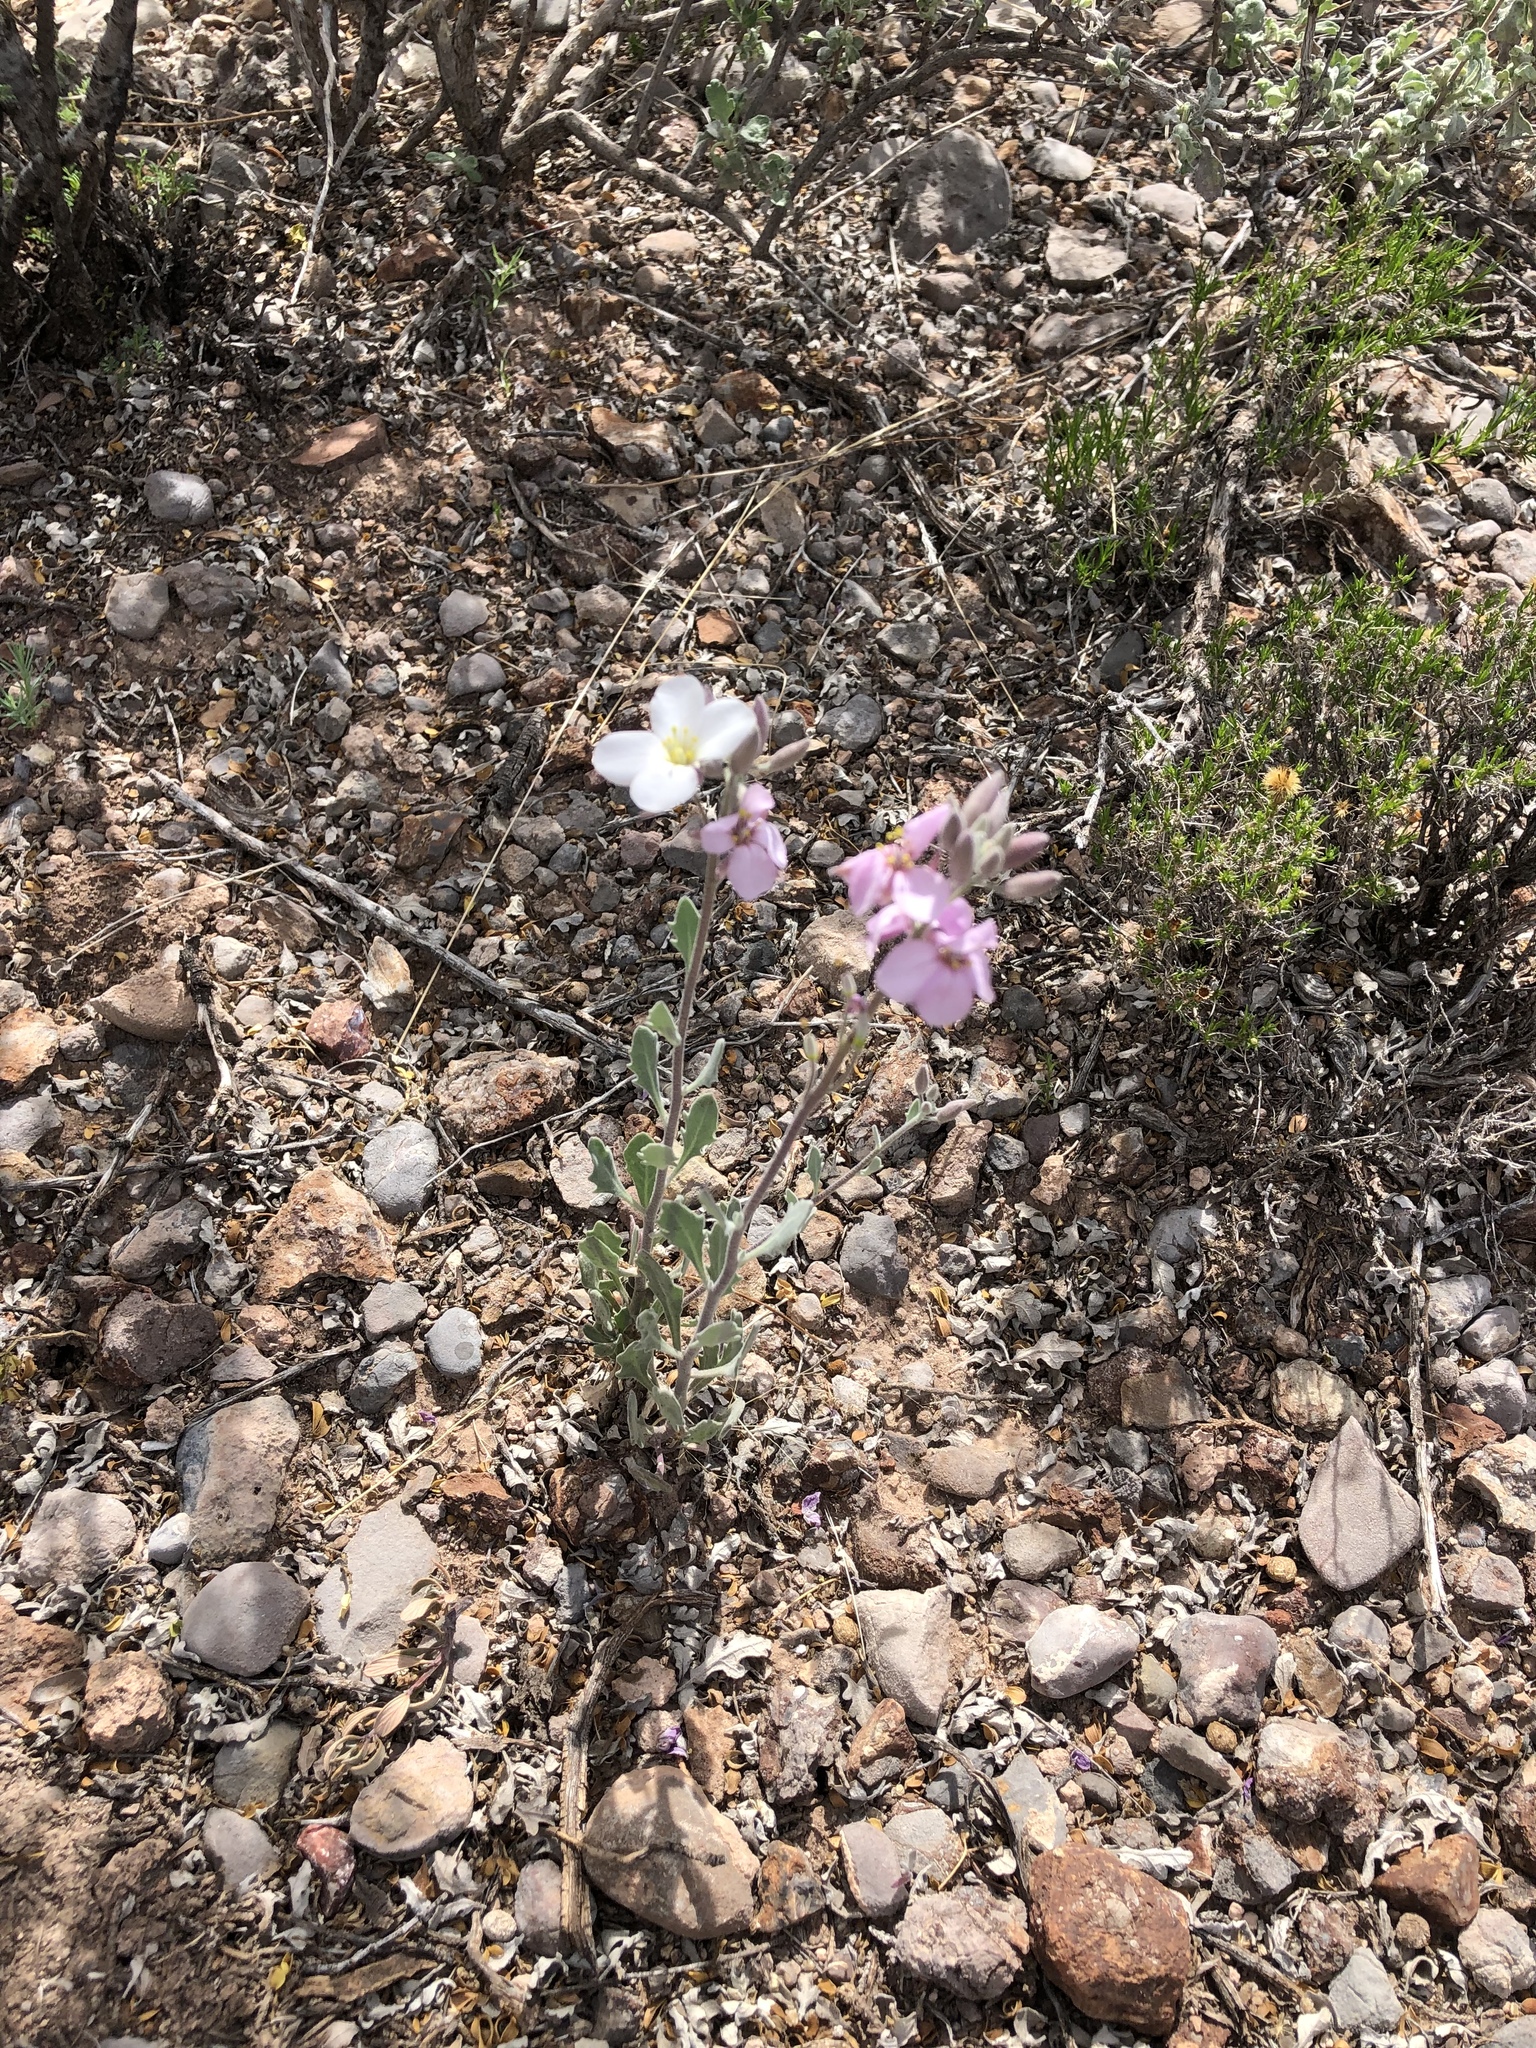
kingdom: Plantae
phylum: Tracheophyta
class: Magnoliopsida
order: Brassicales
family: Brassicaceae
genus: Nerisyrenia
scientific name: Nerisyrenia camporum
